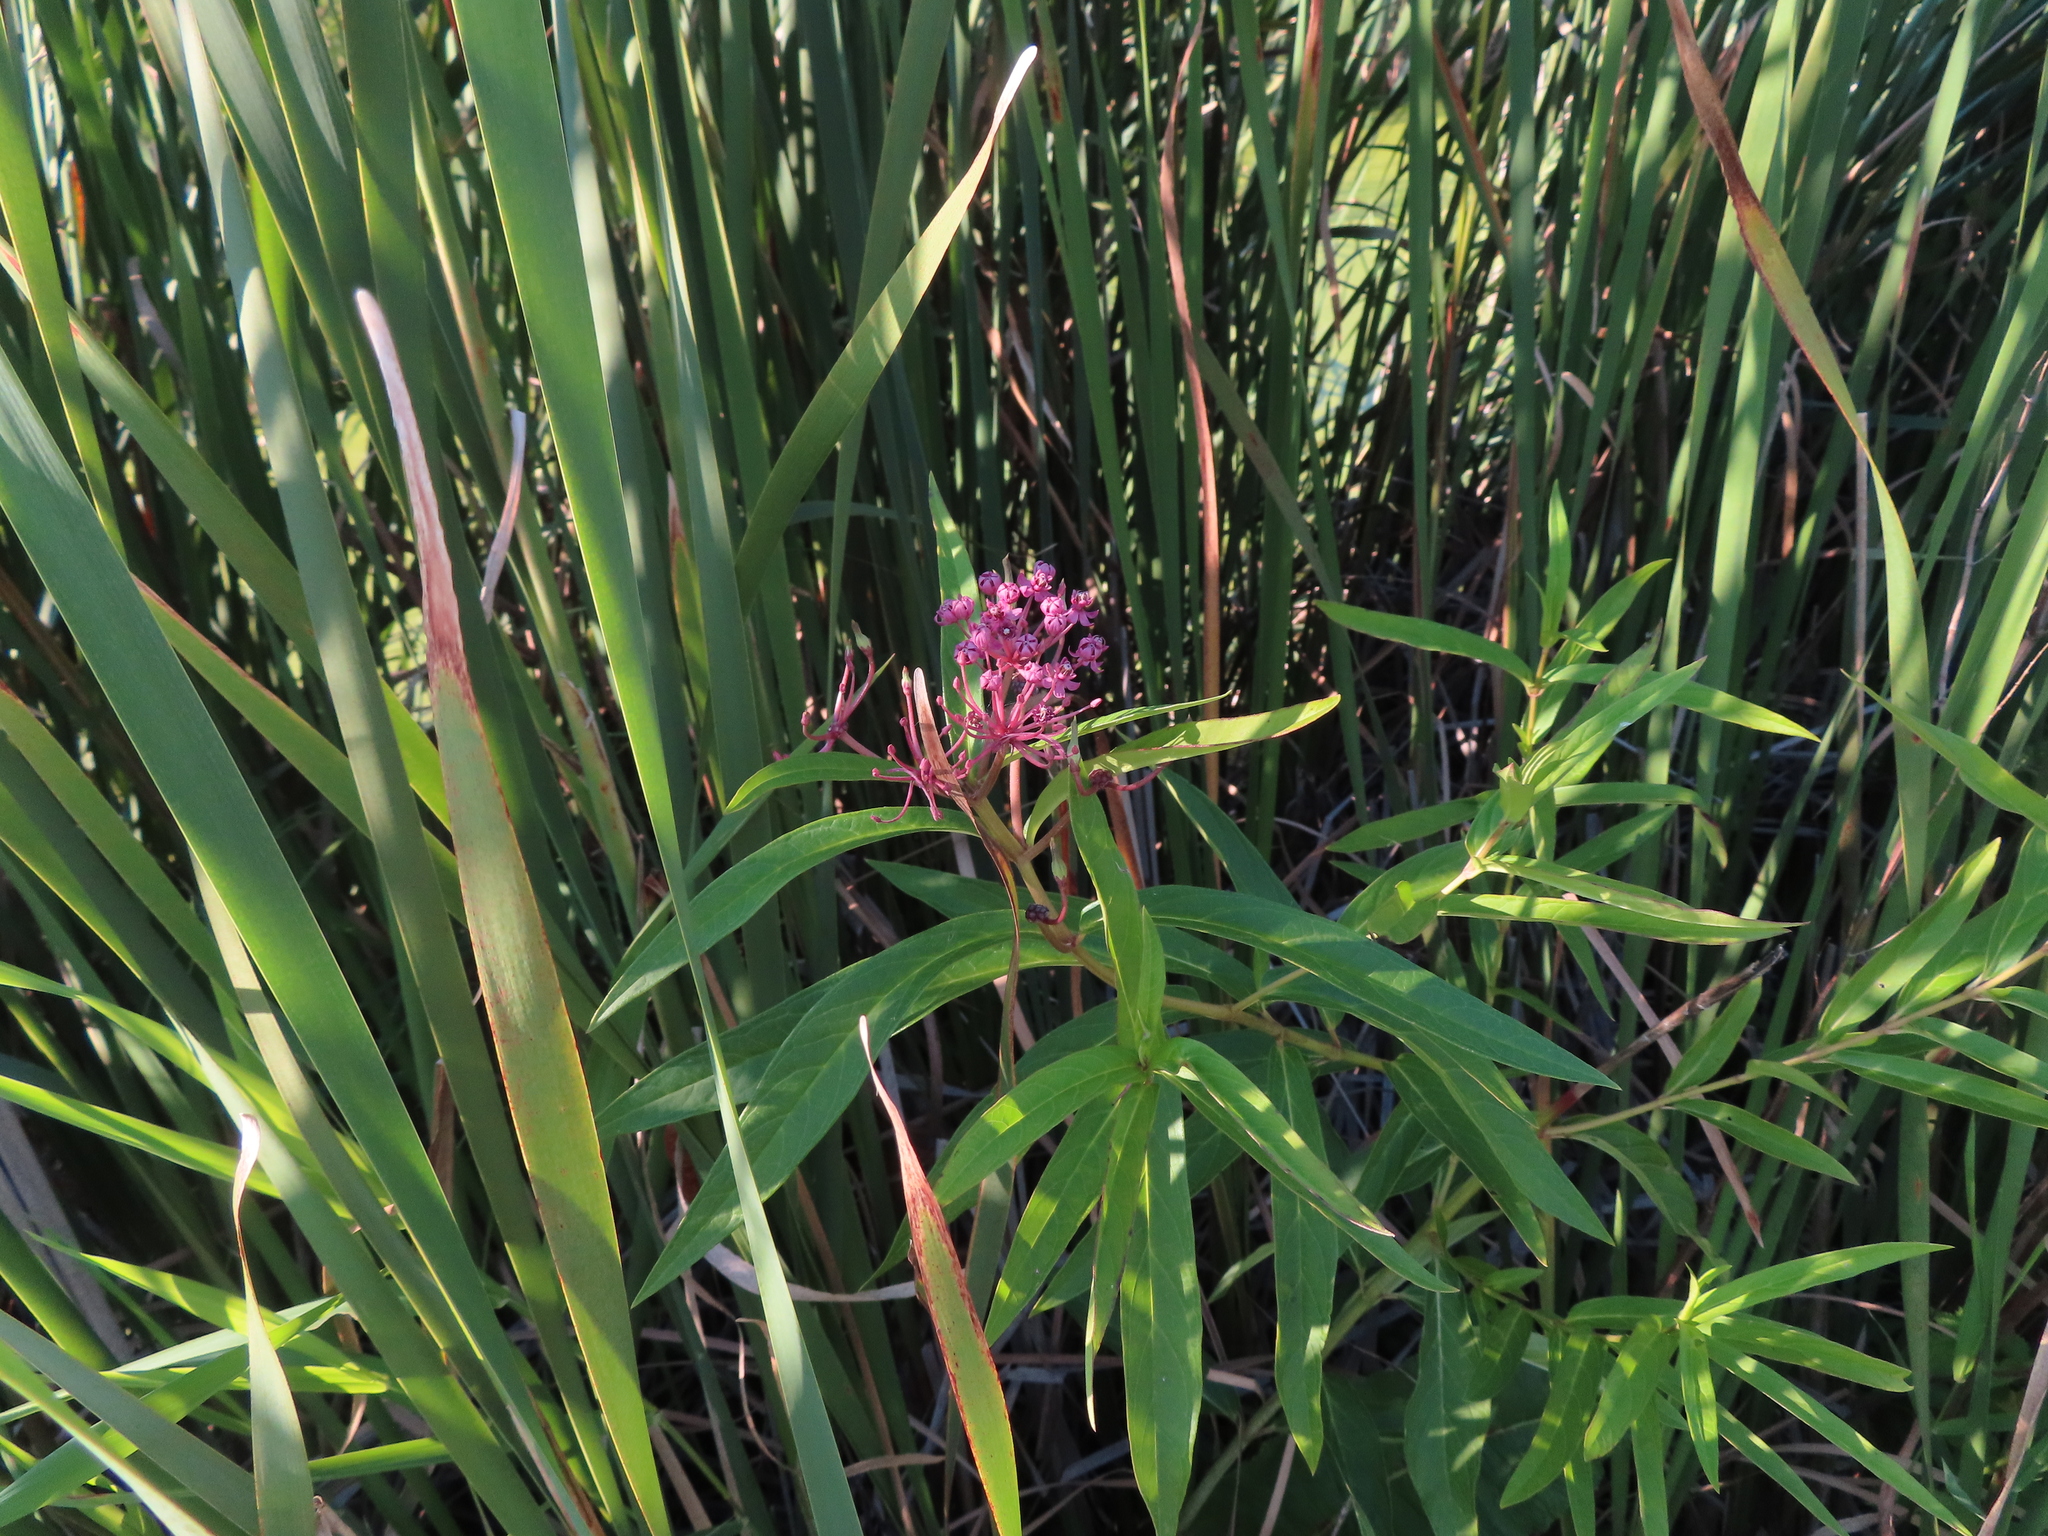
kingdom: Plantae
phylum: Tracheophyta
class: Magnoliopsida
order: Gentianales
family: Apocynaceae
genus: Asclepias
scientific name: Asclepias incarnata
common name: Swamp milkweed
